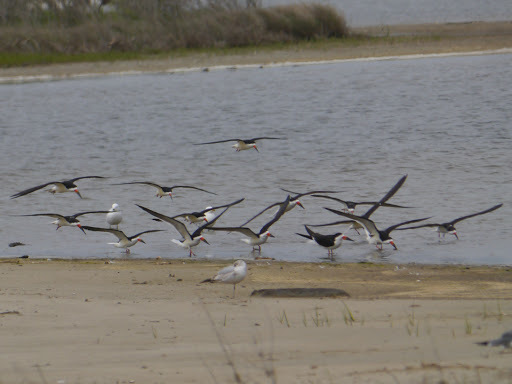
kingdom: Animalia
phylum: Chordata
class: Aves
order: Charadriiformes
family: Laridae
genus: Rynchops
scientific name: Rynchops niger
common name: Black skimmer
